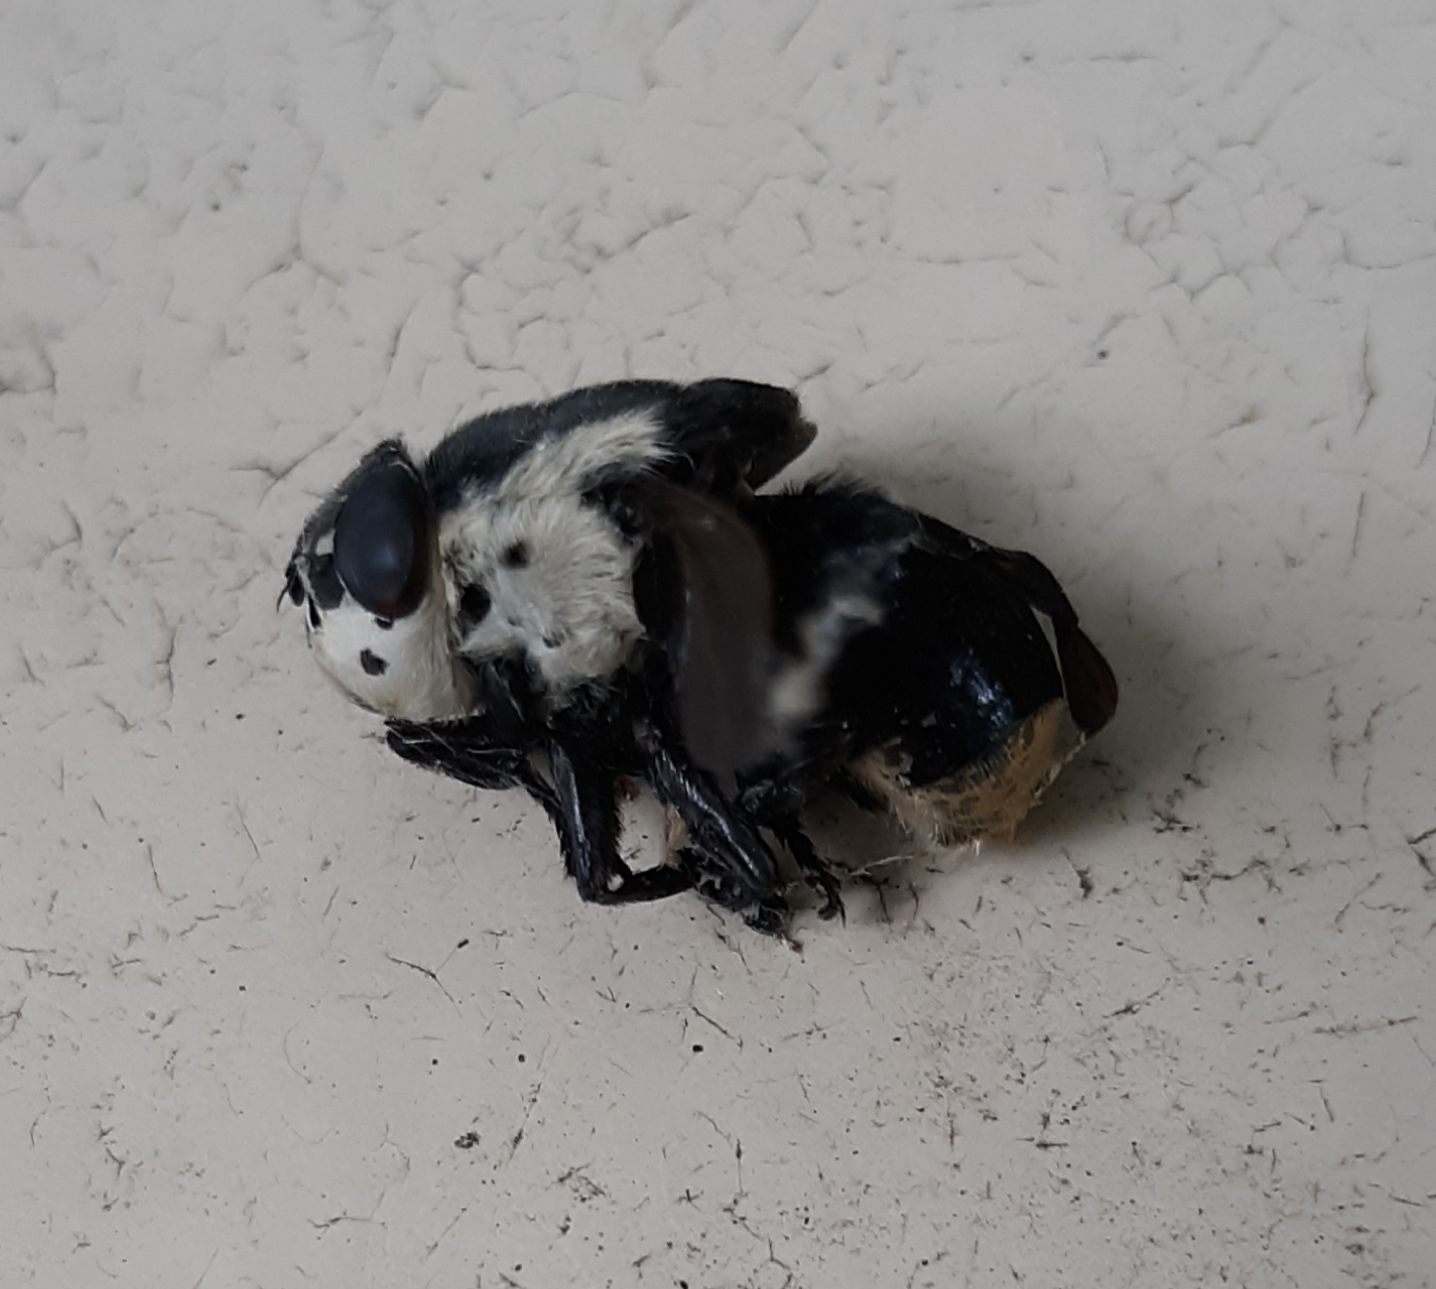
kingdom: Animalia
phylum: Arthropoda
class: Insecta
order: Diptera
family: Oestridae
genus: Cuterebra
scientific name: Cuterebra fontinella
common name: Mouse bot fly
